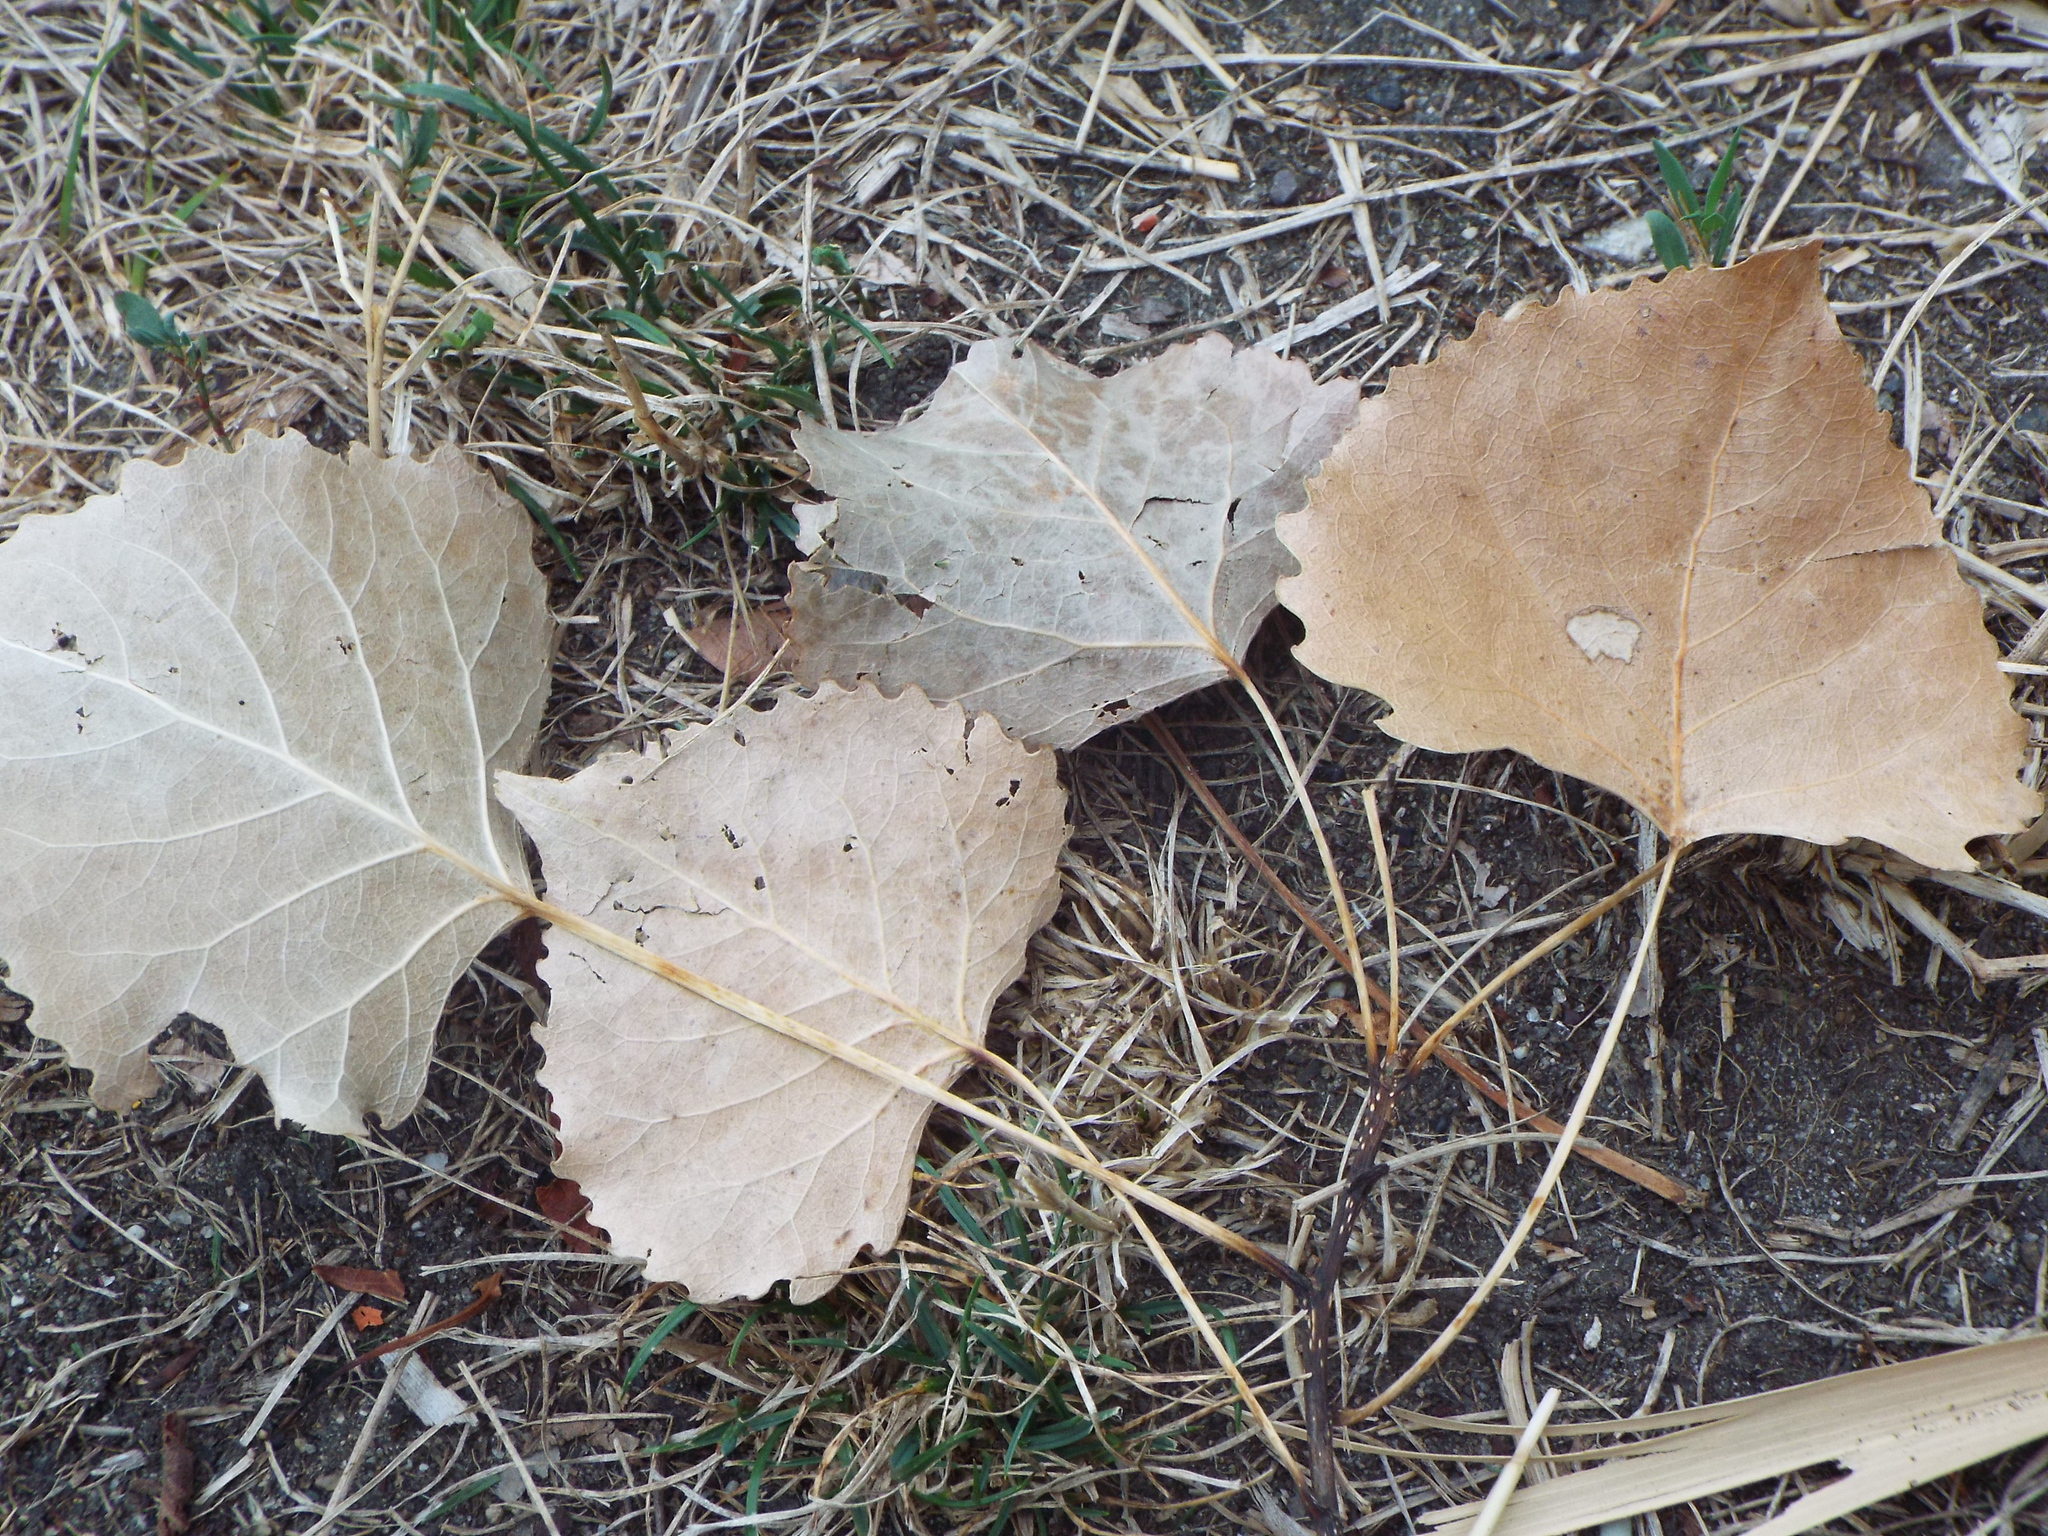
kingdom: Plantae
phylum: Tracheophyta
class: Magnoliopsida
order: Malpighiales
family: Salicaceae
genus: Populus
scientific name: Populus deltoides
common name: Eastern cottonwood
